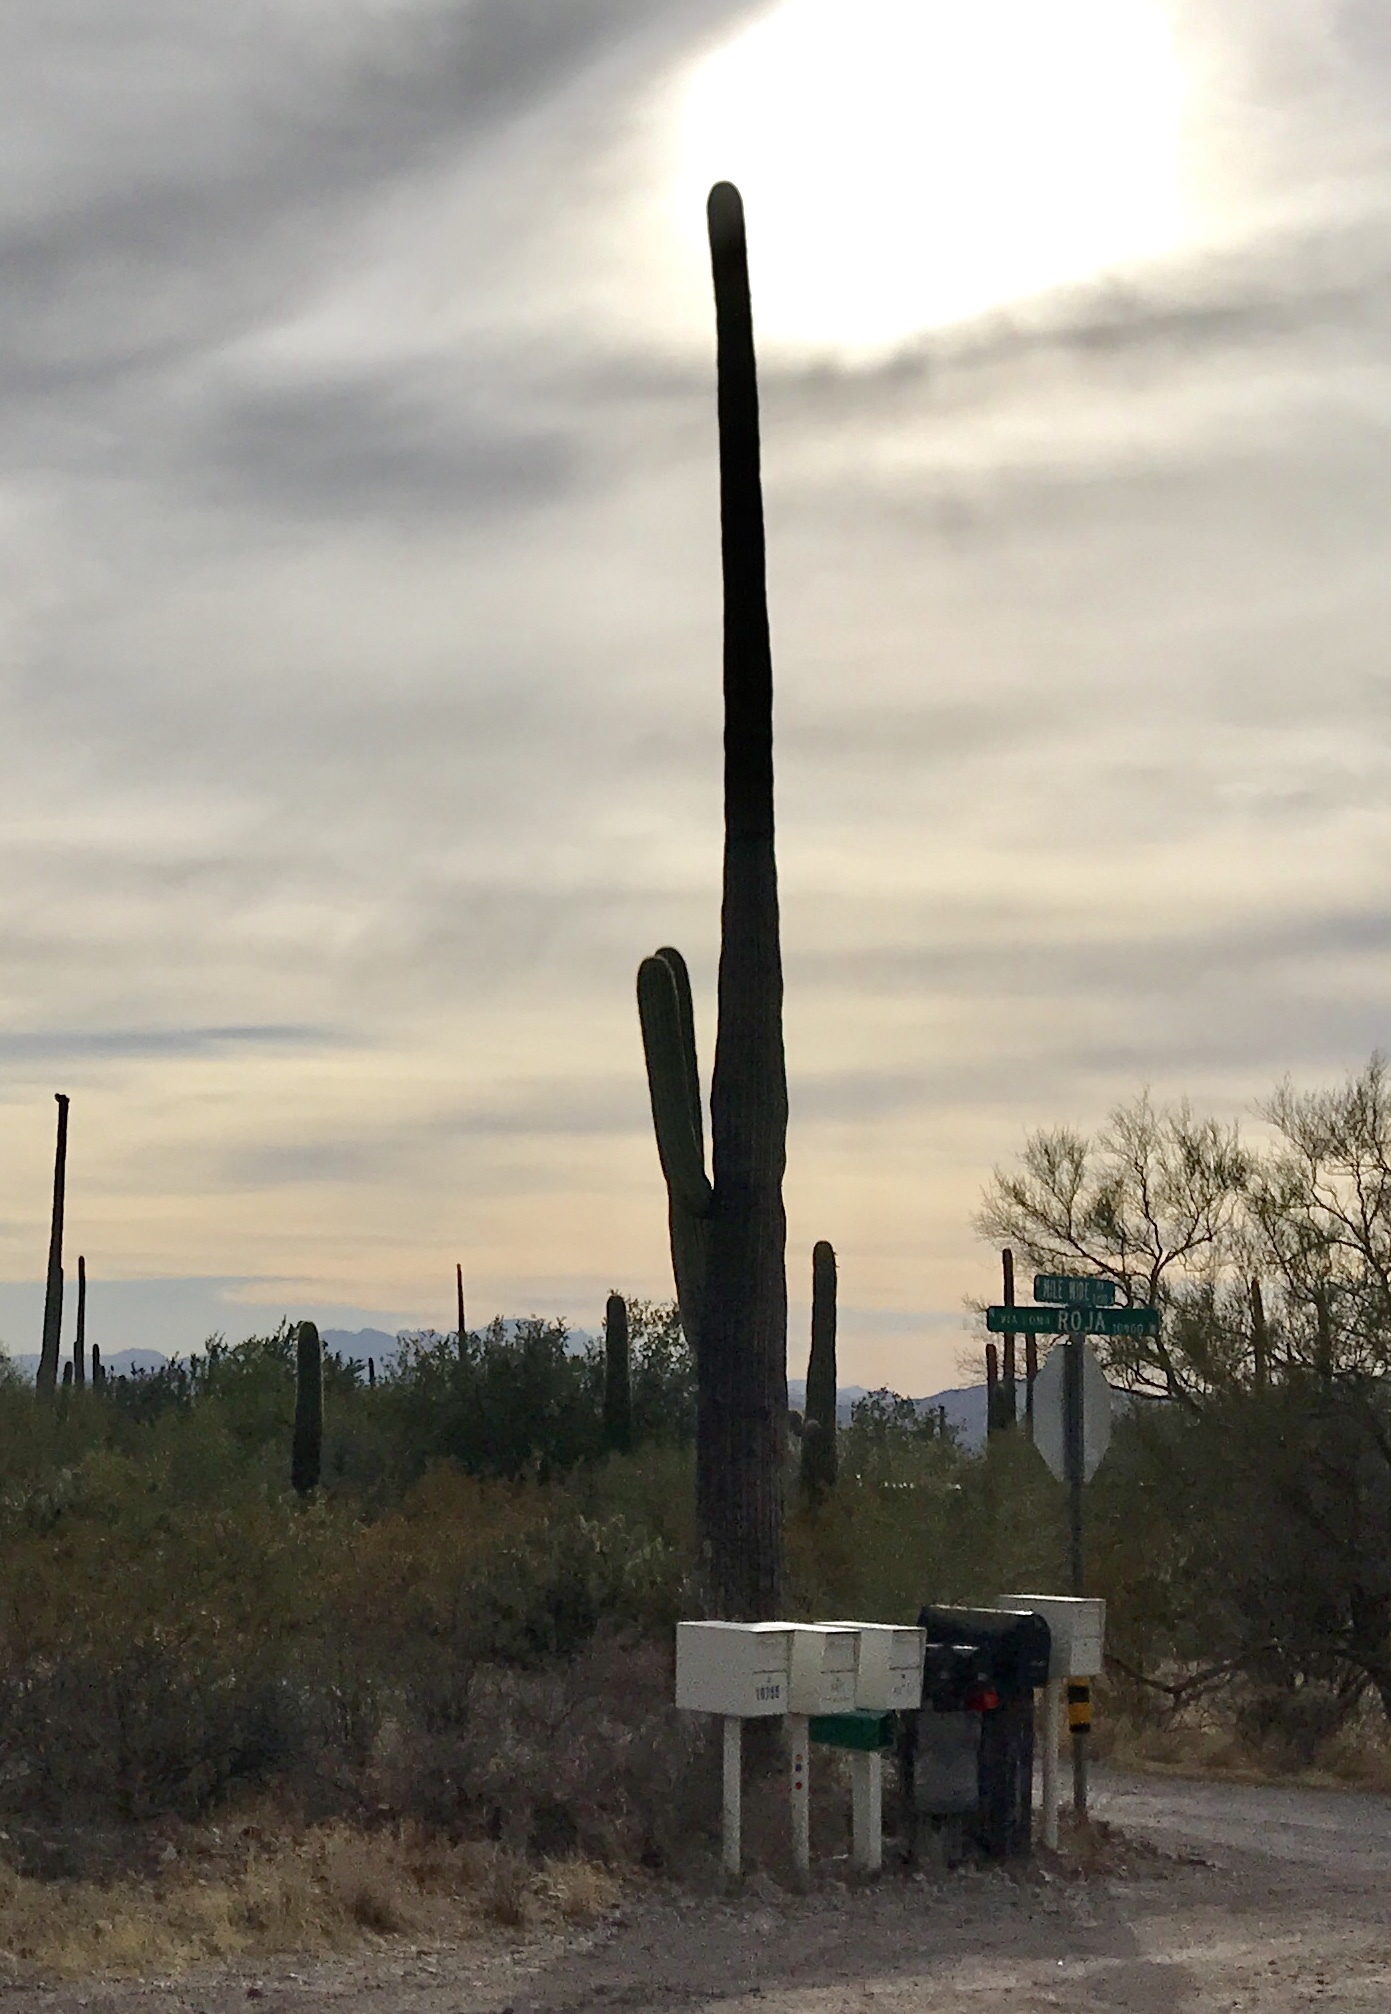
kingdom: Plantae
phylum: Tracheophyta
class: Magnoliopsida
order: Caryophyllales
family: Cactaceae
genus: Carnegiea
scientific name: Carnegiea gigantea
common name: Saguaro
